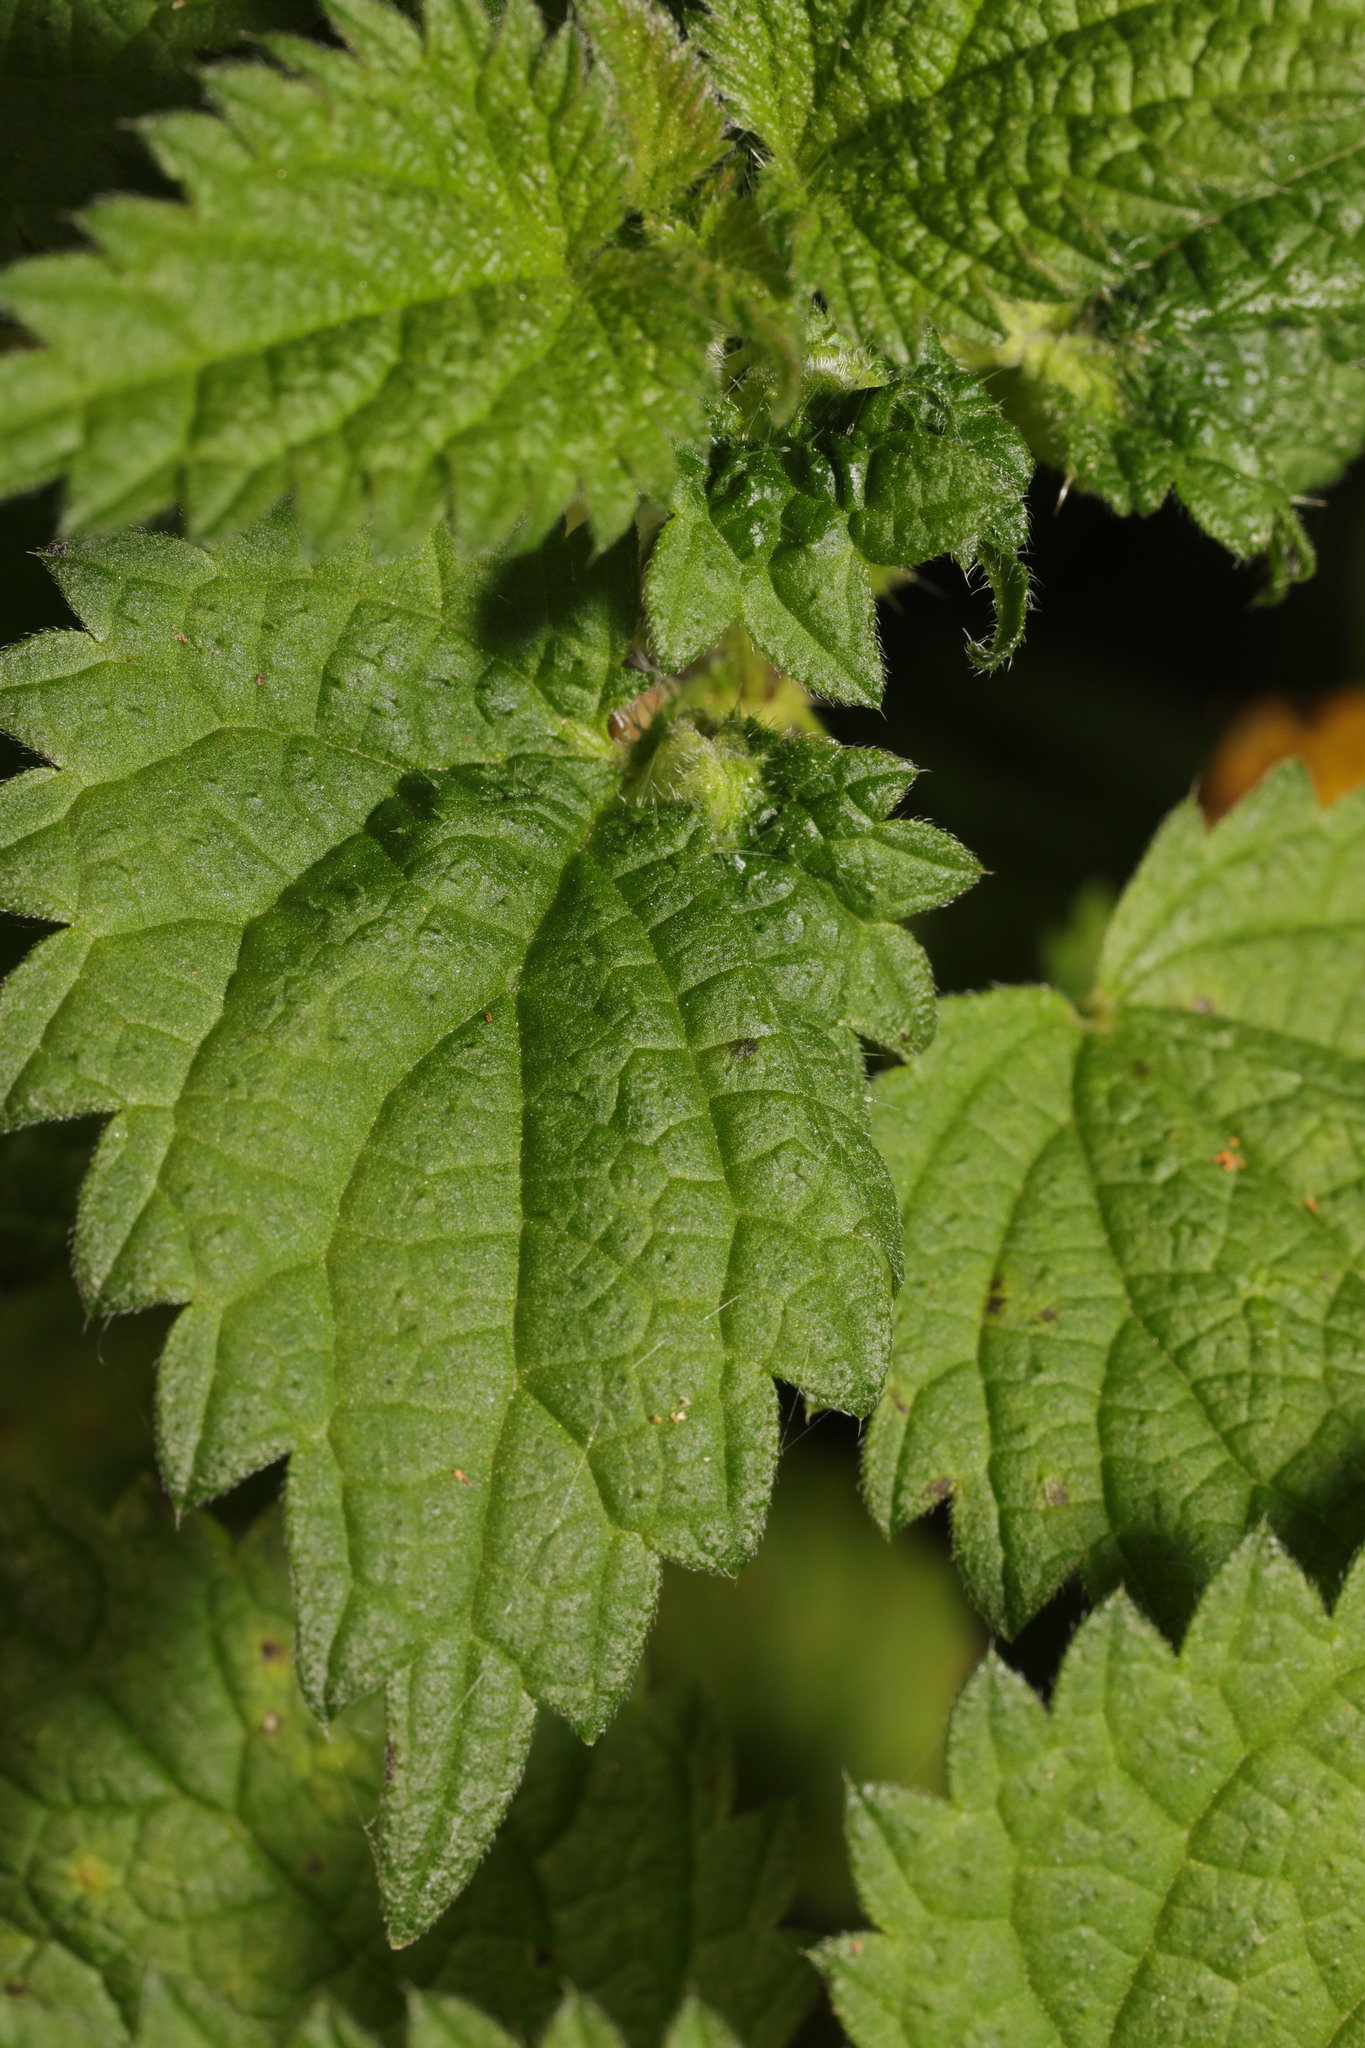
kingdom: Plantae
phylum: Tracheophyta
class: Magnoliopsida
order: Rosales
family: Urticaceae
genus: Urtica
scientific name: Urtica dioica
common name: Common nettle
